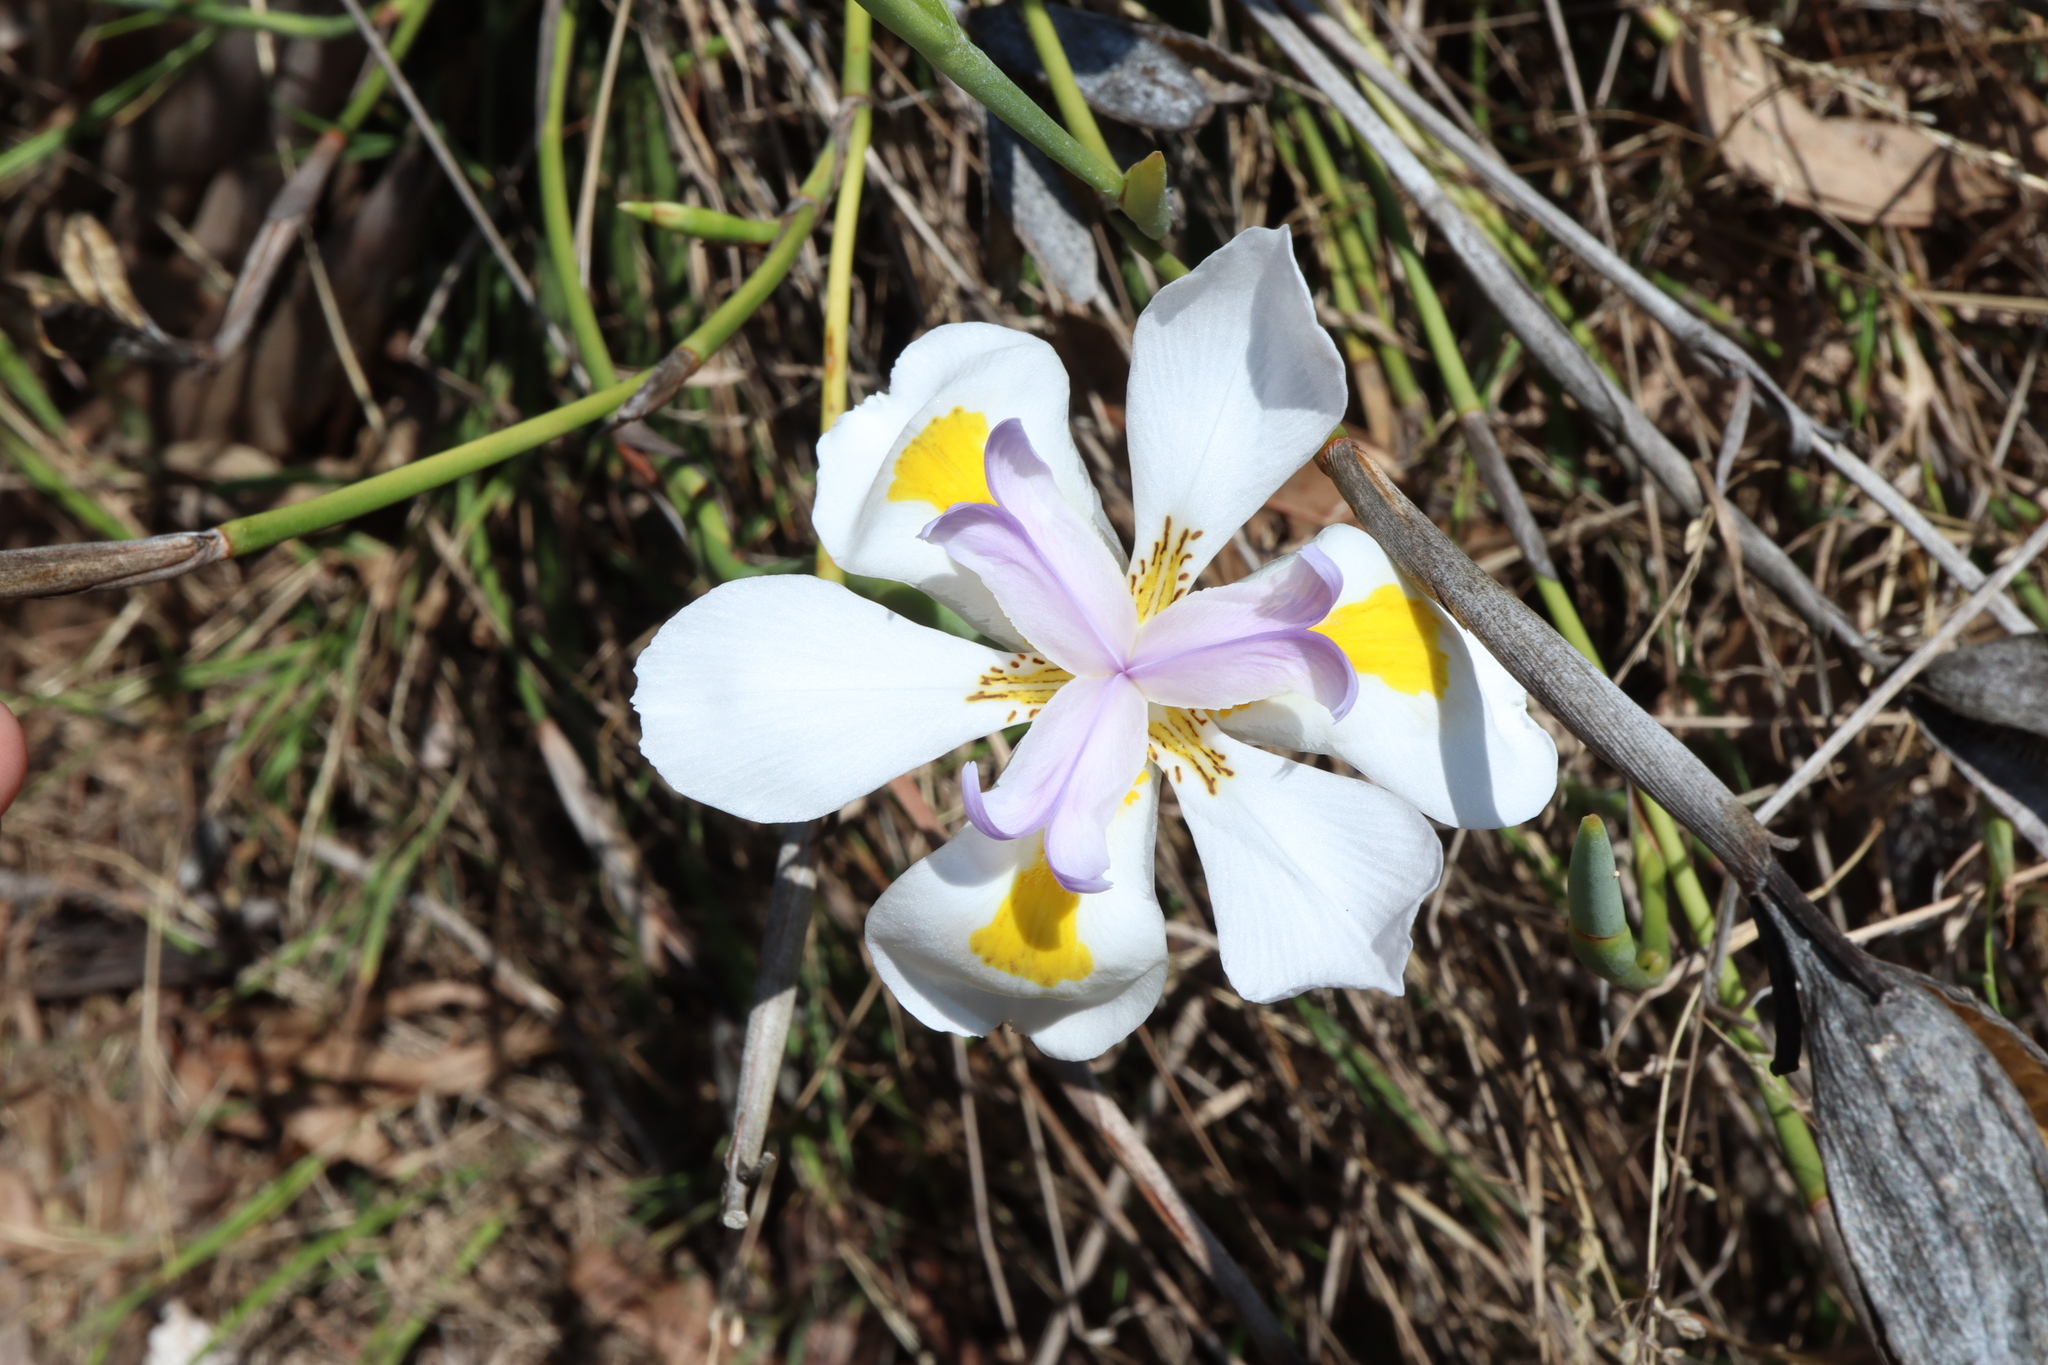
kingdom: Plantae
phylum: Tracheophyta
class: Liliopsida
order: Asparagales
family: Iridaceae
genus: Dietes
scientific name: Dietes grandiflora
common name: Wild iris
